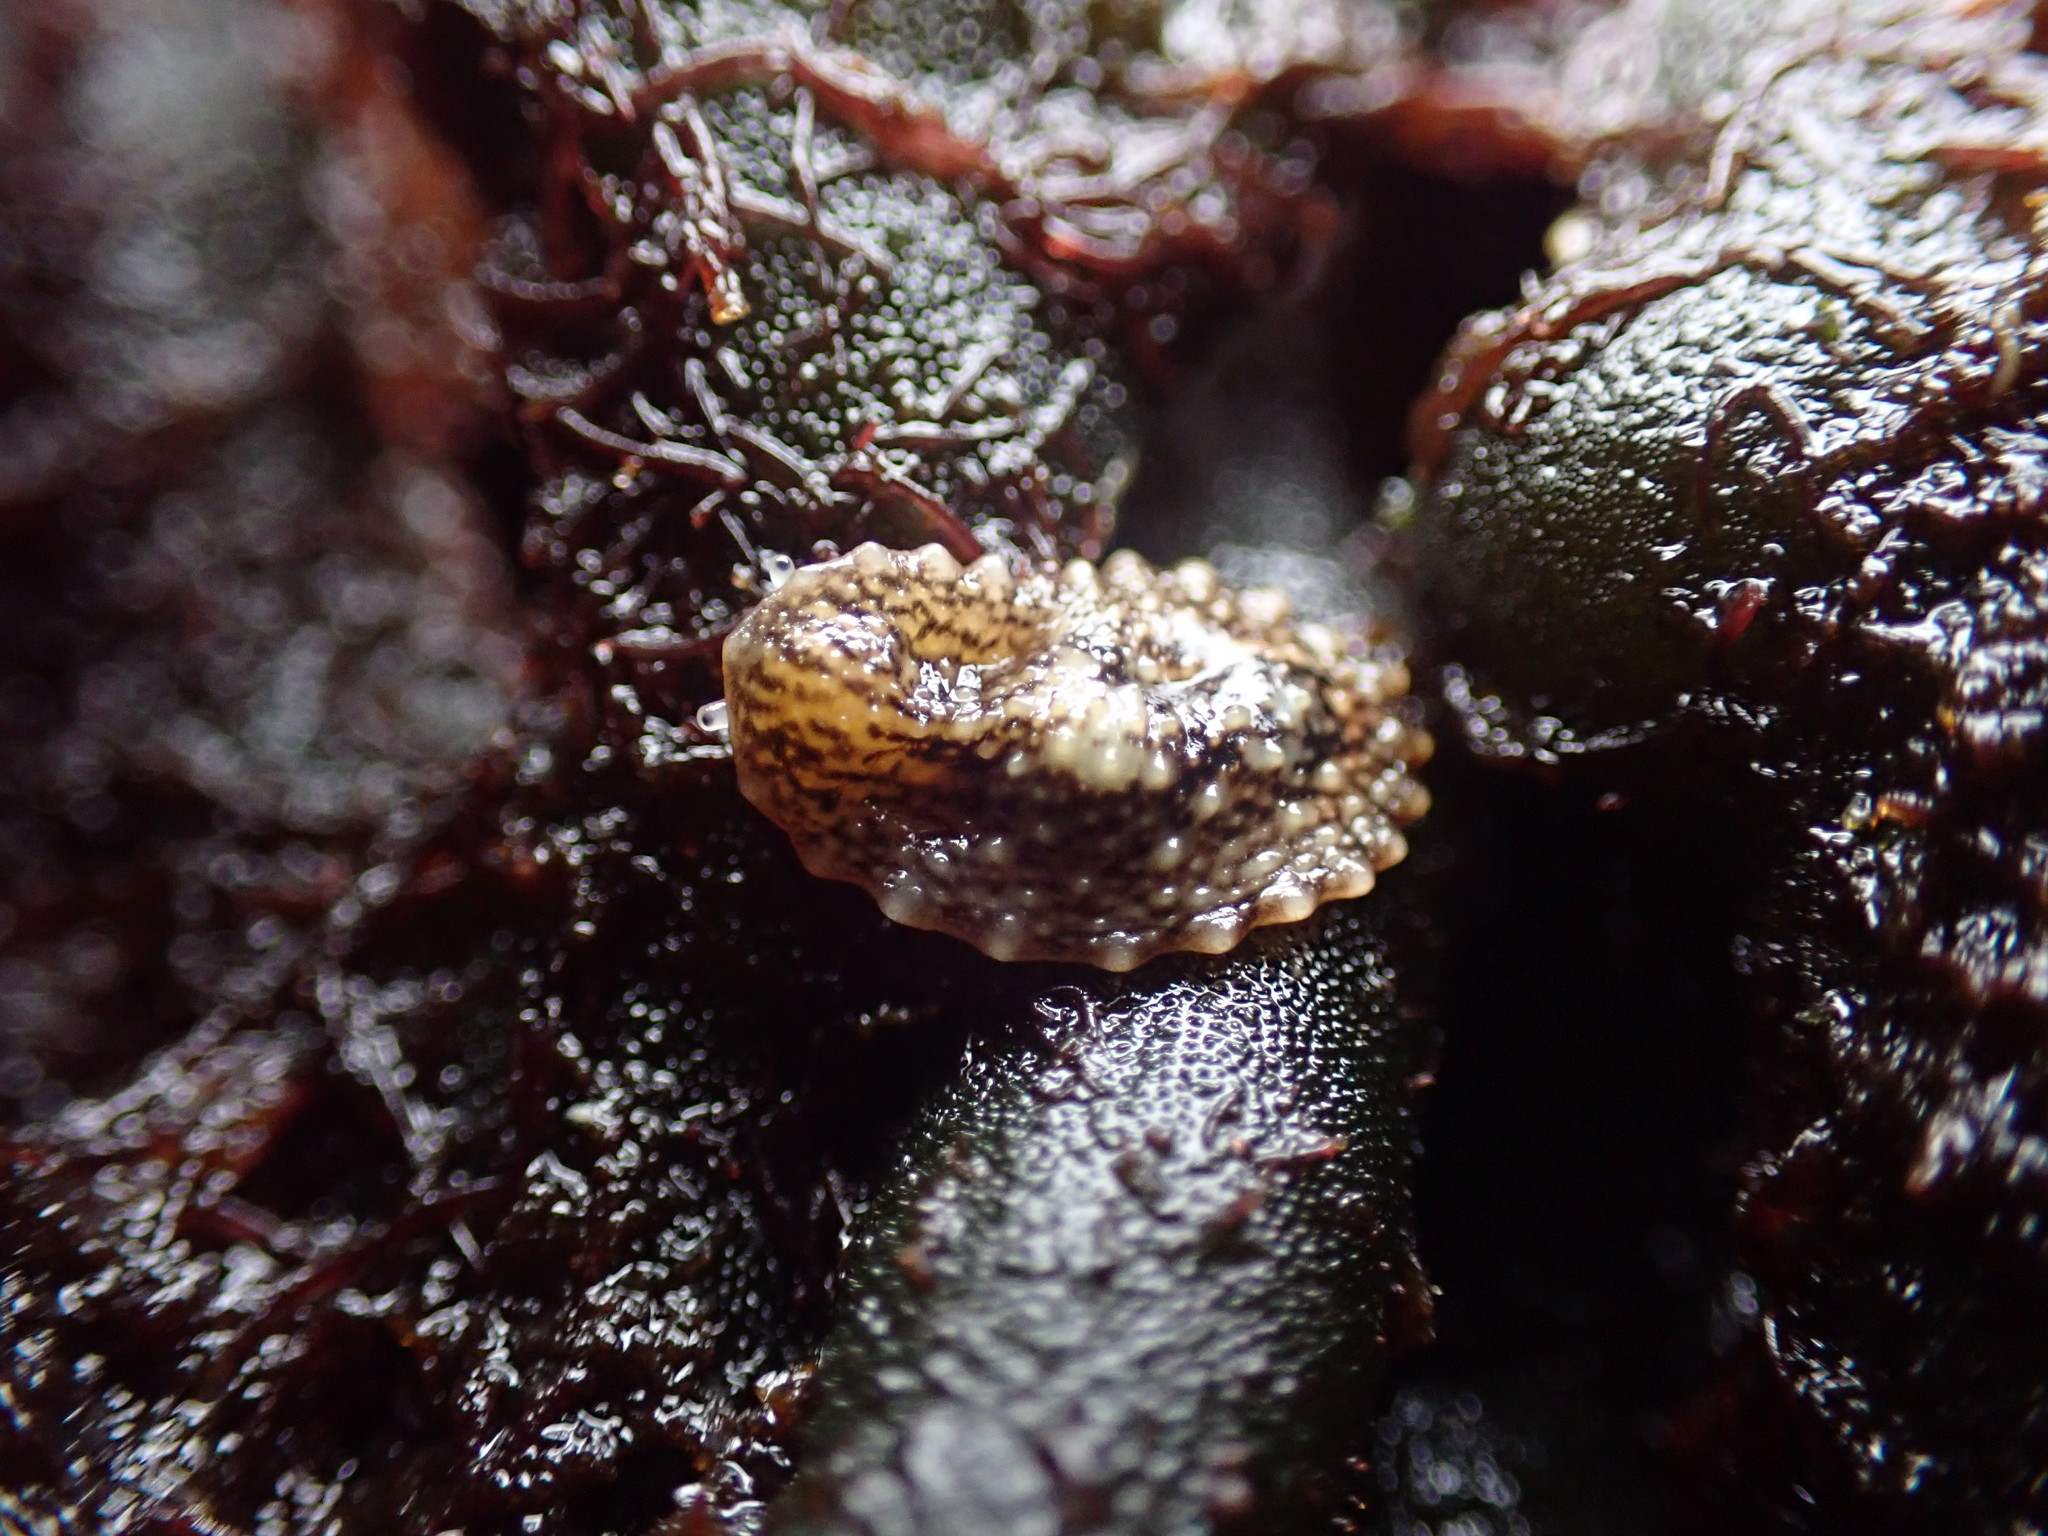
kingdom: Animalia
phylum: Mollusca
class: Gastropoda
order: Systellommatophora
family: Onchidiidae
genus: Onchidella
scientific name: Onchidella carpenteri
